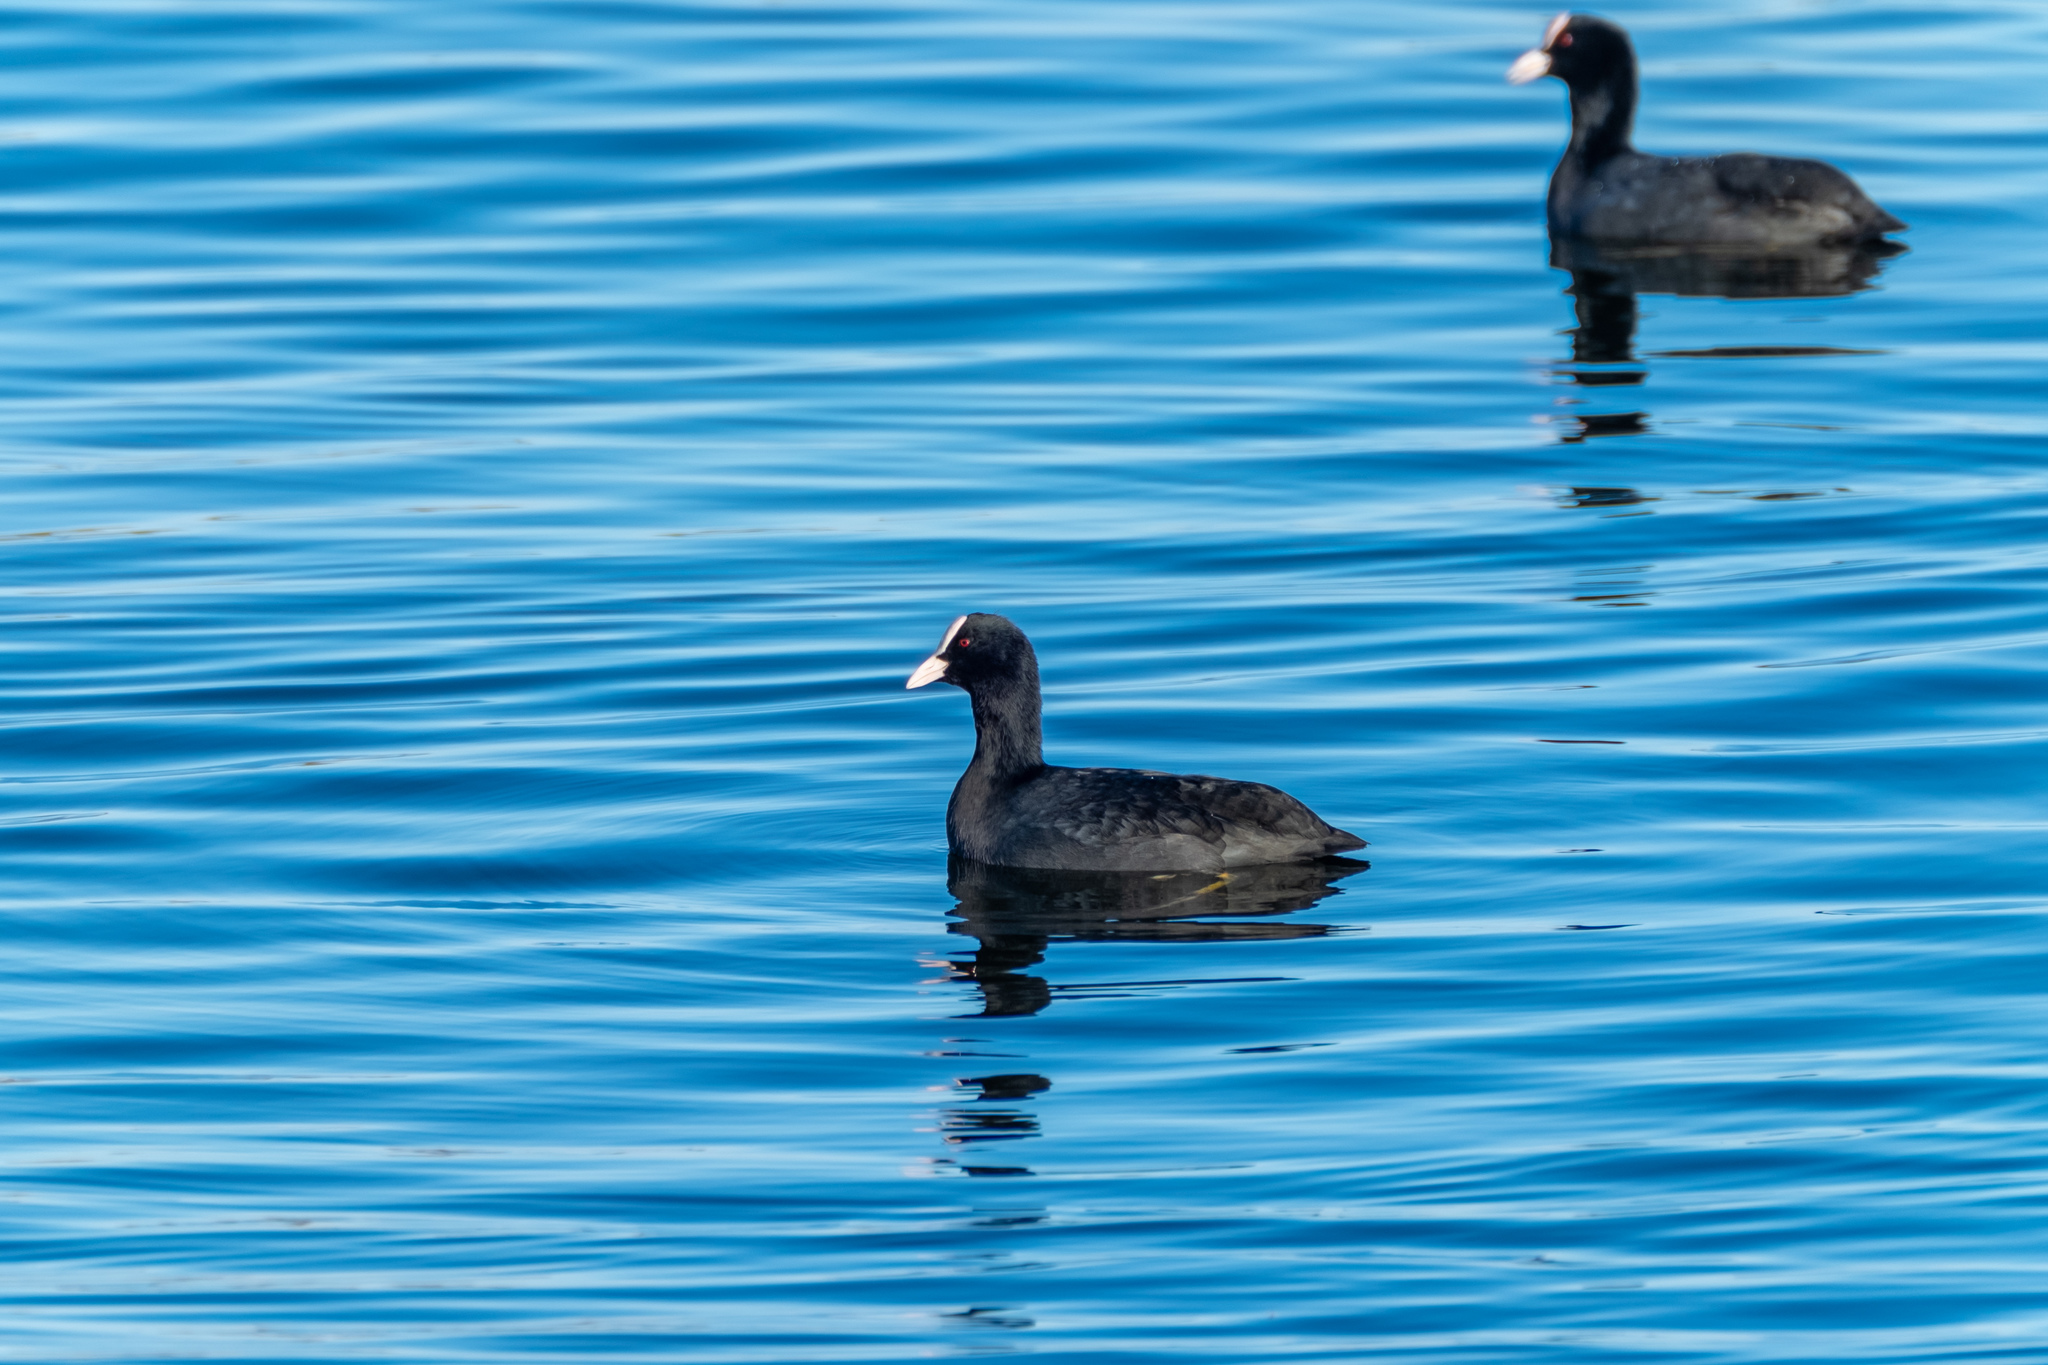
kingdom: Animalia
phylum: Chordata
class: Aves
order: Gruiformes
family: Rallidae
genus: Fulica
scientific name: Fulica atra
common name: Eurasian coot
